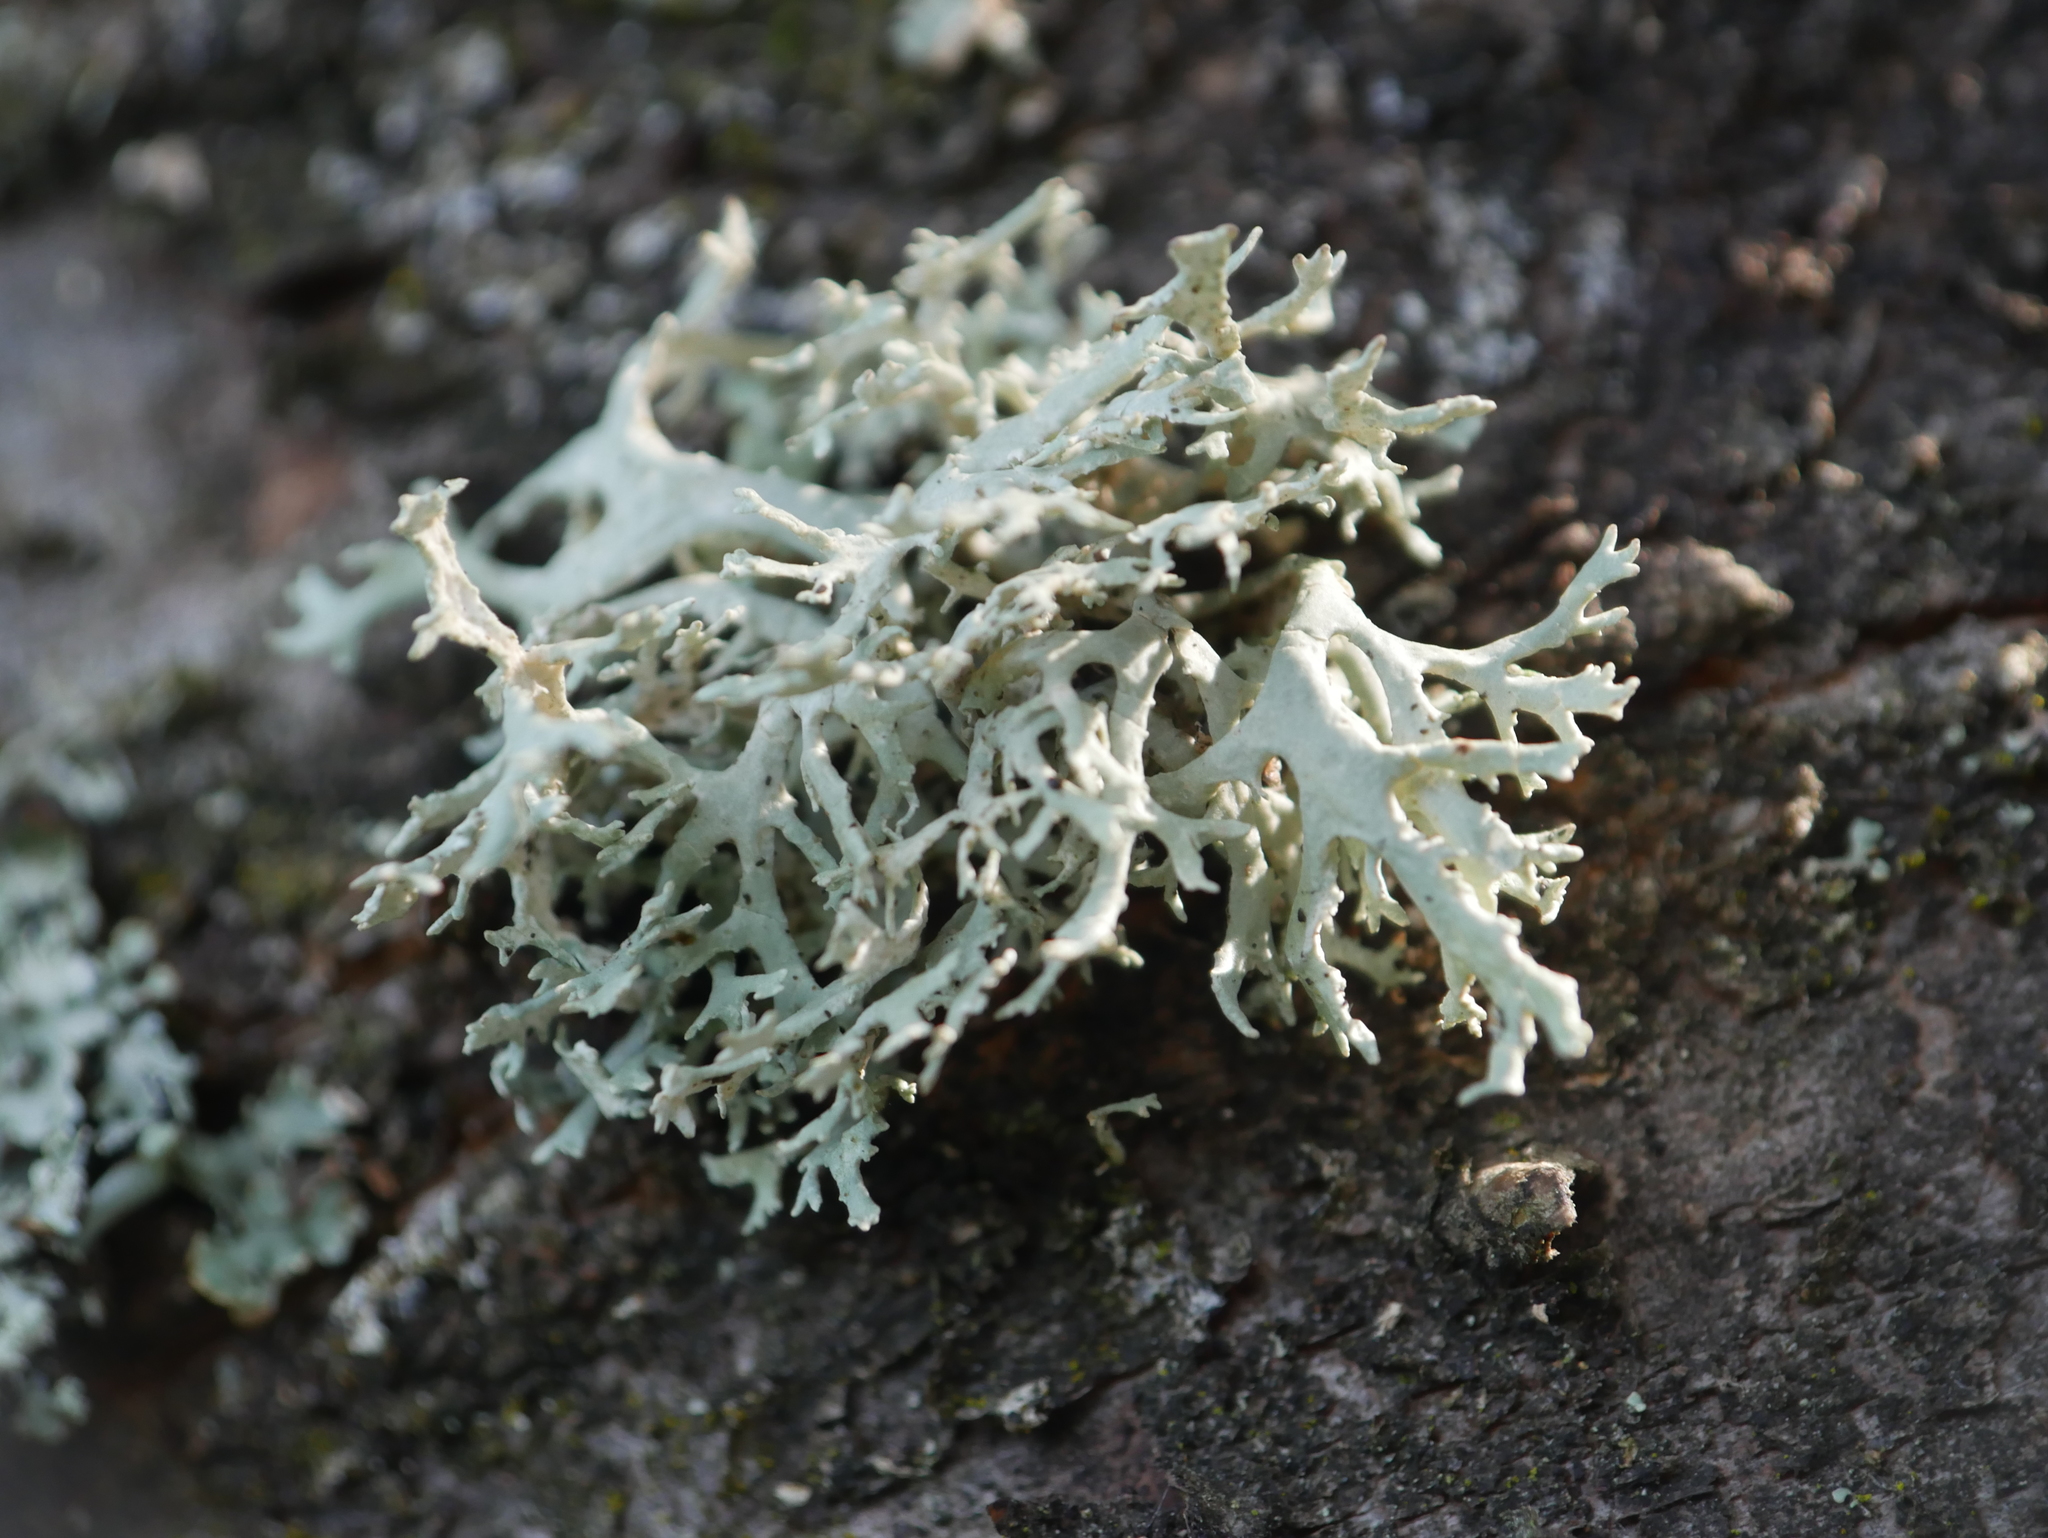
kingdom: Fungi
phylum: Ascomycota
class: Lecanoromycetes
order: Lecanorales
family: Parmeliaceae
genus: Evernia
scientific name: Evernia prunastri
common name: Oak moss
